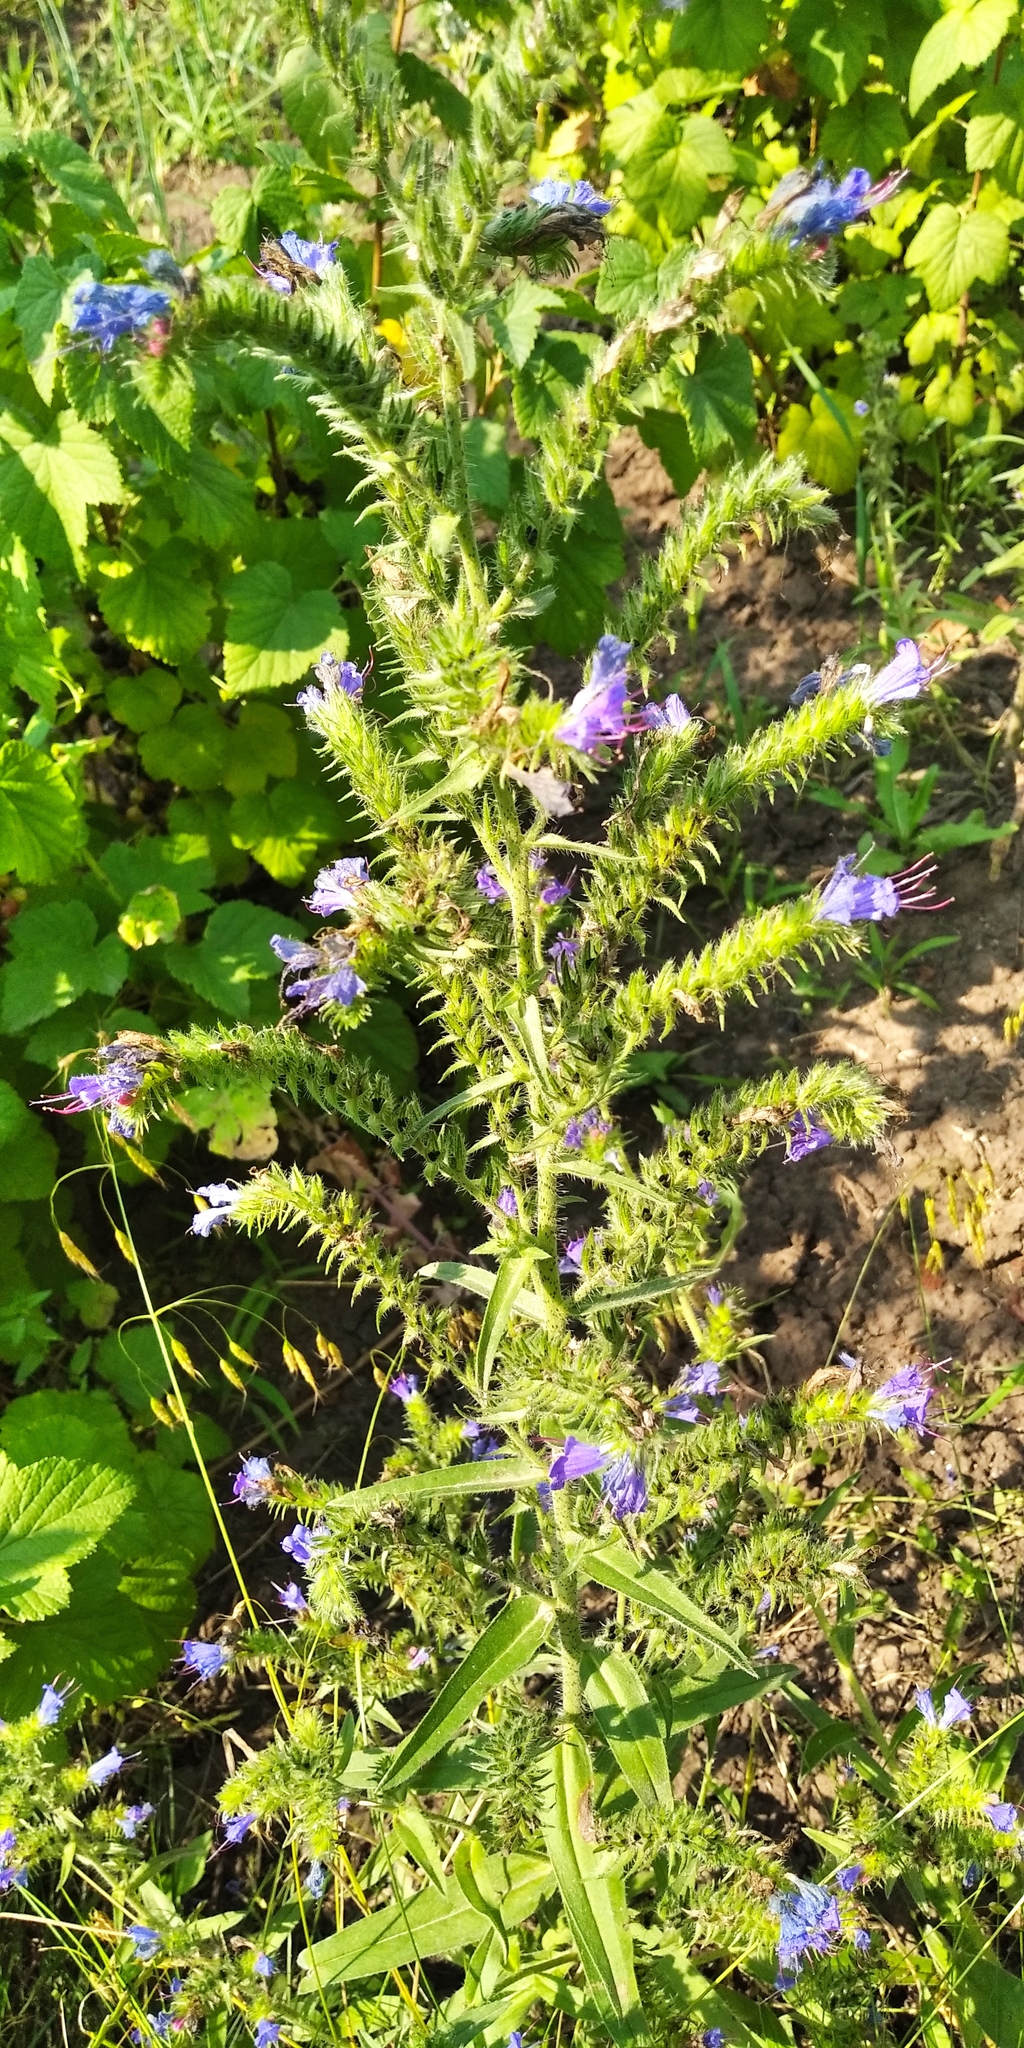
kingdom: Plantae
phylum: Tracheophyta
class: Magnoliopsida
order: Boraginales
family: Boraginaceae
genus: Echium
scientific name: Echium vulgare
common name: Common viper's bugloss
